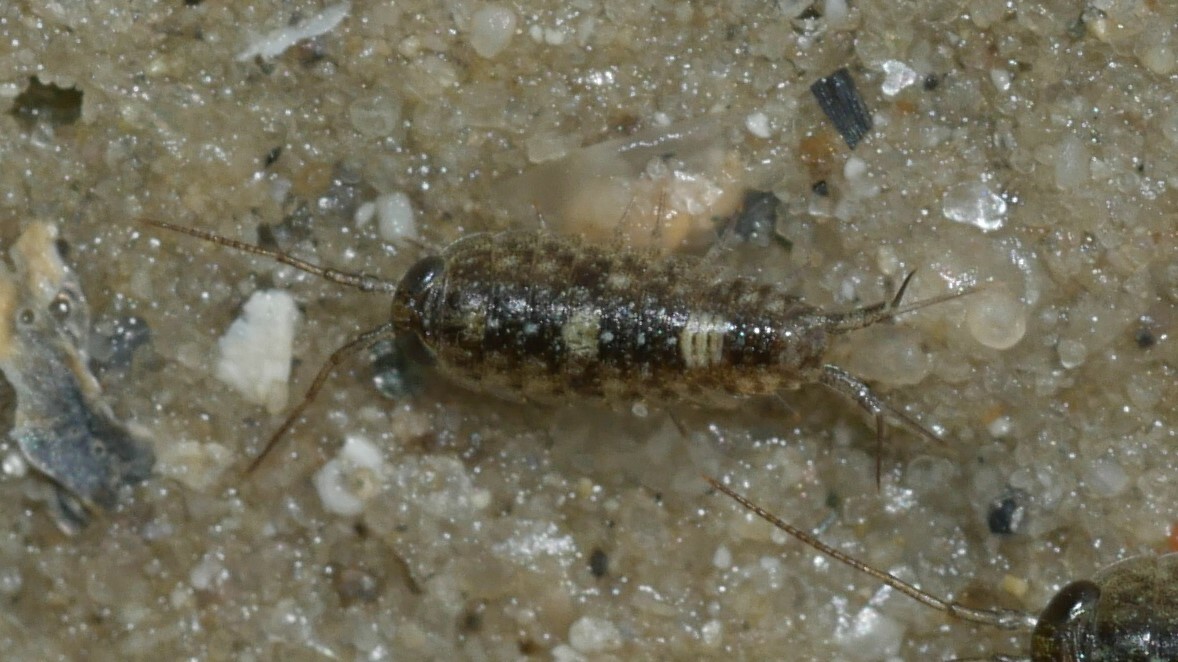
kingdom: Animalia
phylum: Arthropoda
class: Malacostraca
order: Isopoda
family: Ligiidae
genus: Ligia
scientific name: Ligia exotica
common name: Wharf roach
